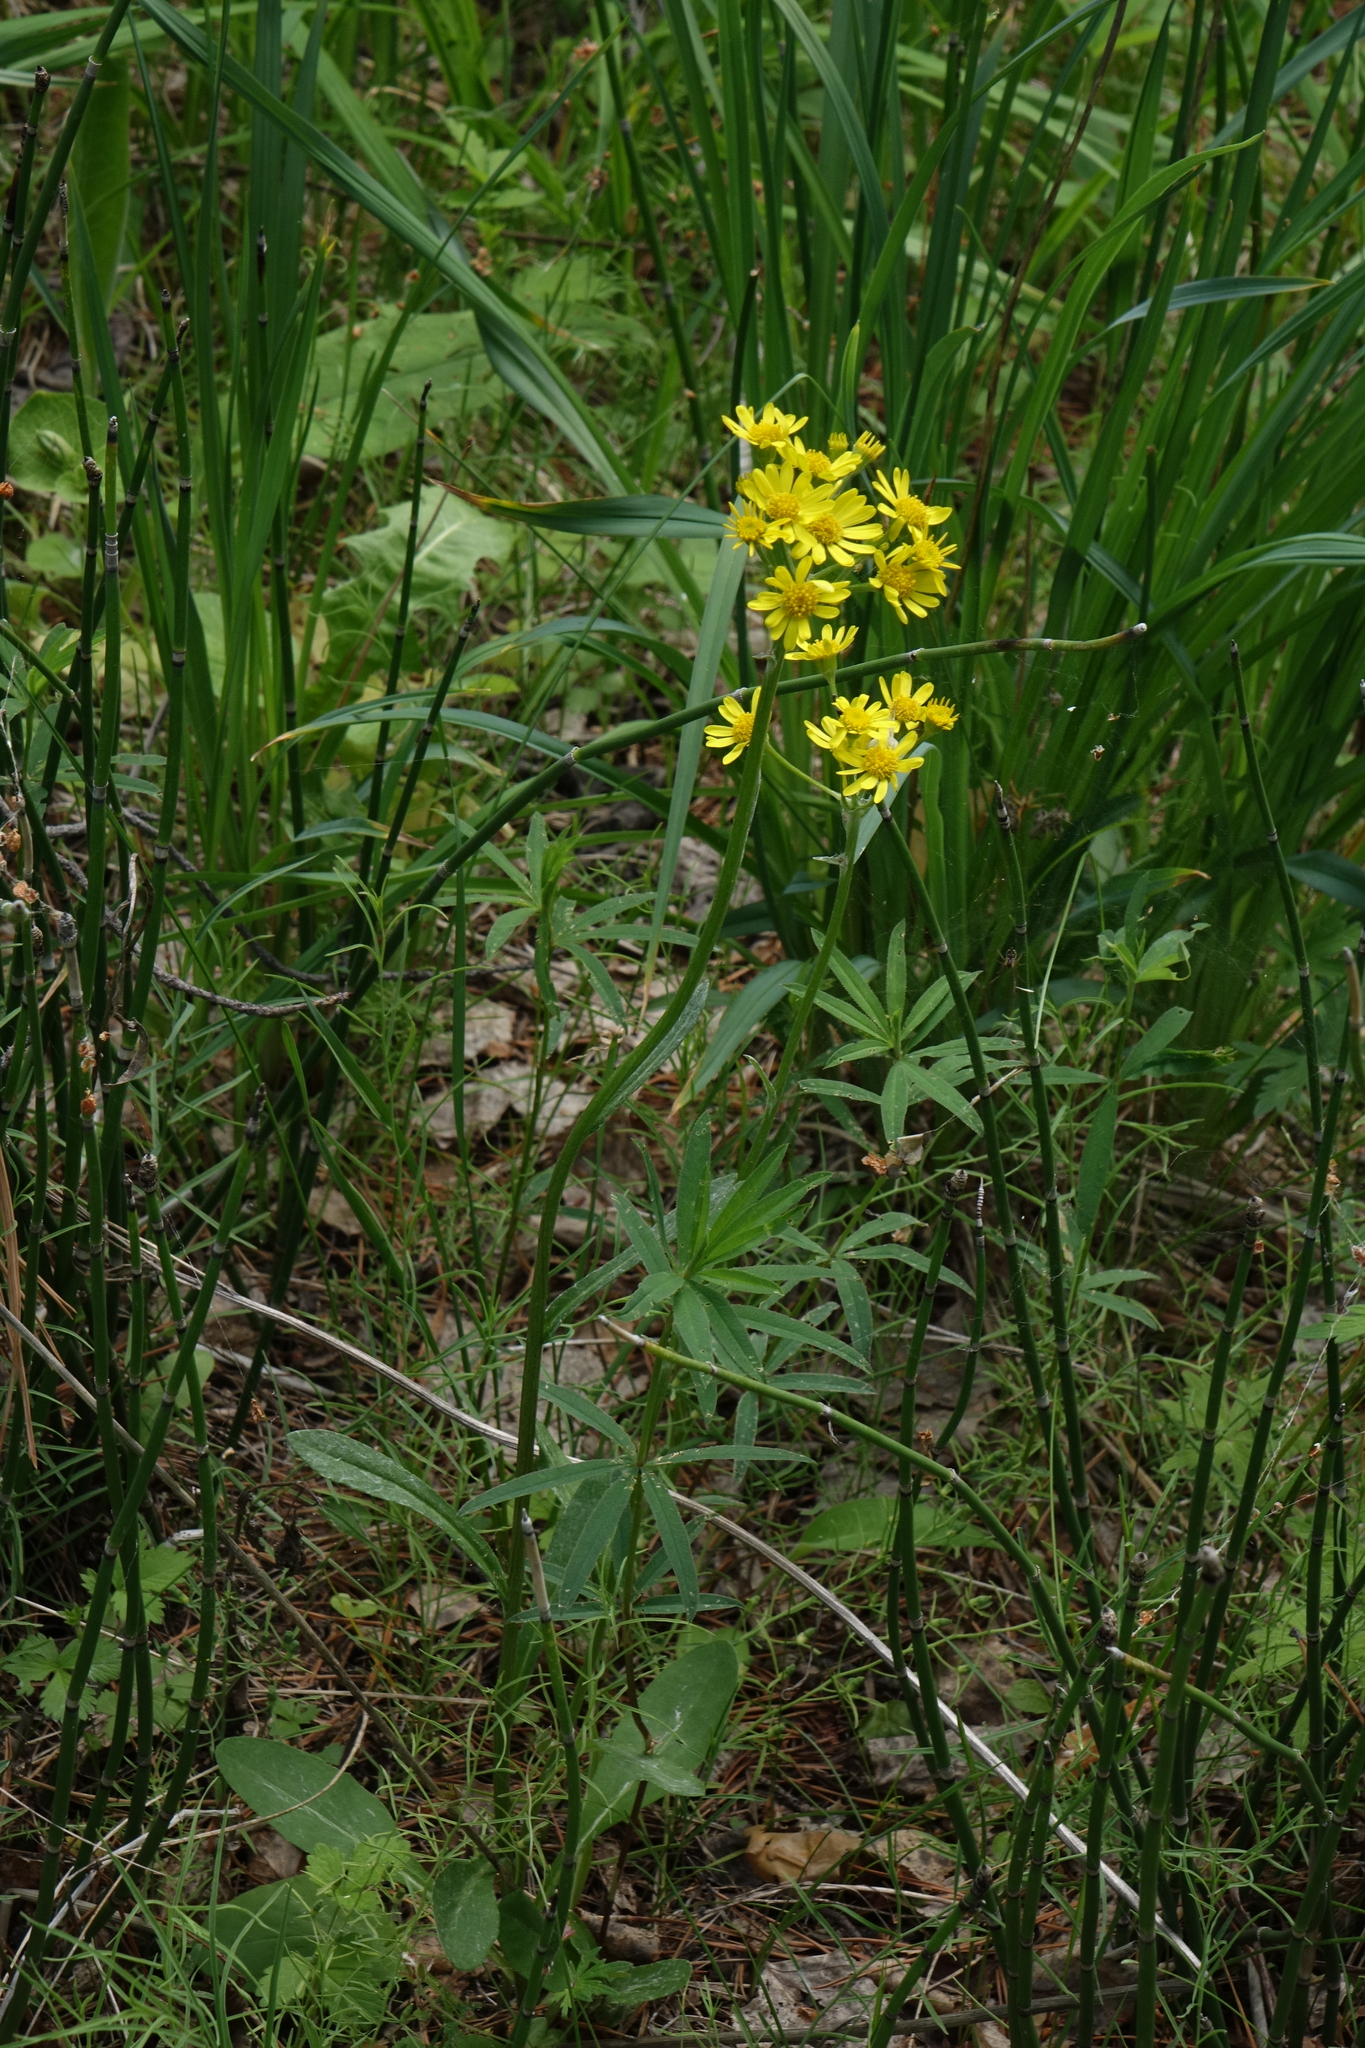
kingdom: Plantae
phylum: Tracheophyta
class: Magnoliopsida
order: Asterales
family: Asteraceae
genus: Tephroseris
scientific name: Tephroseris integrifolia
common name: Field fleawort
